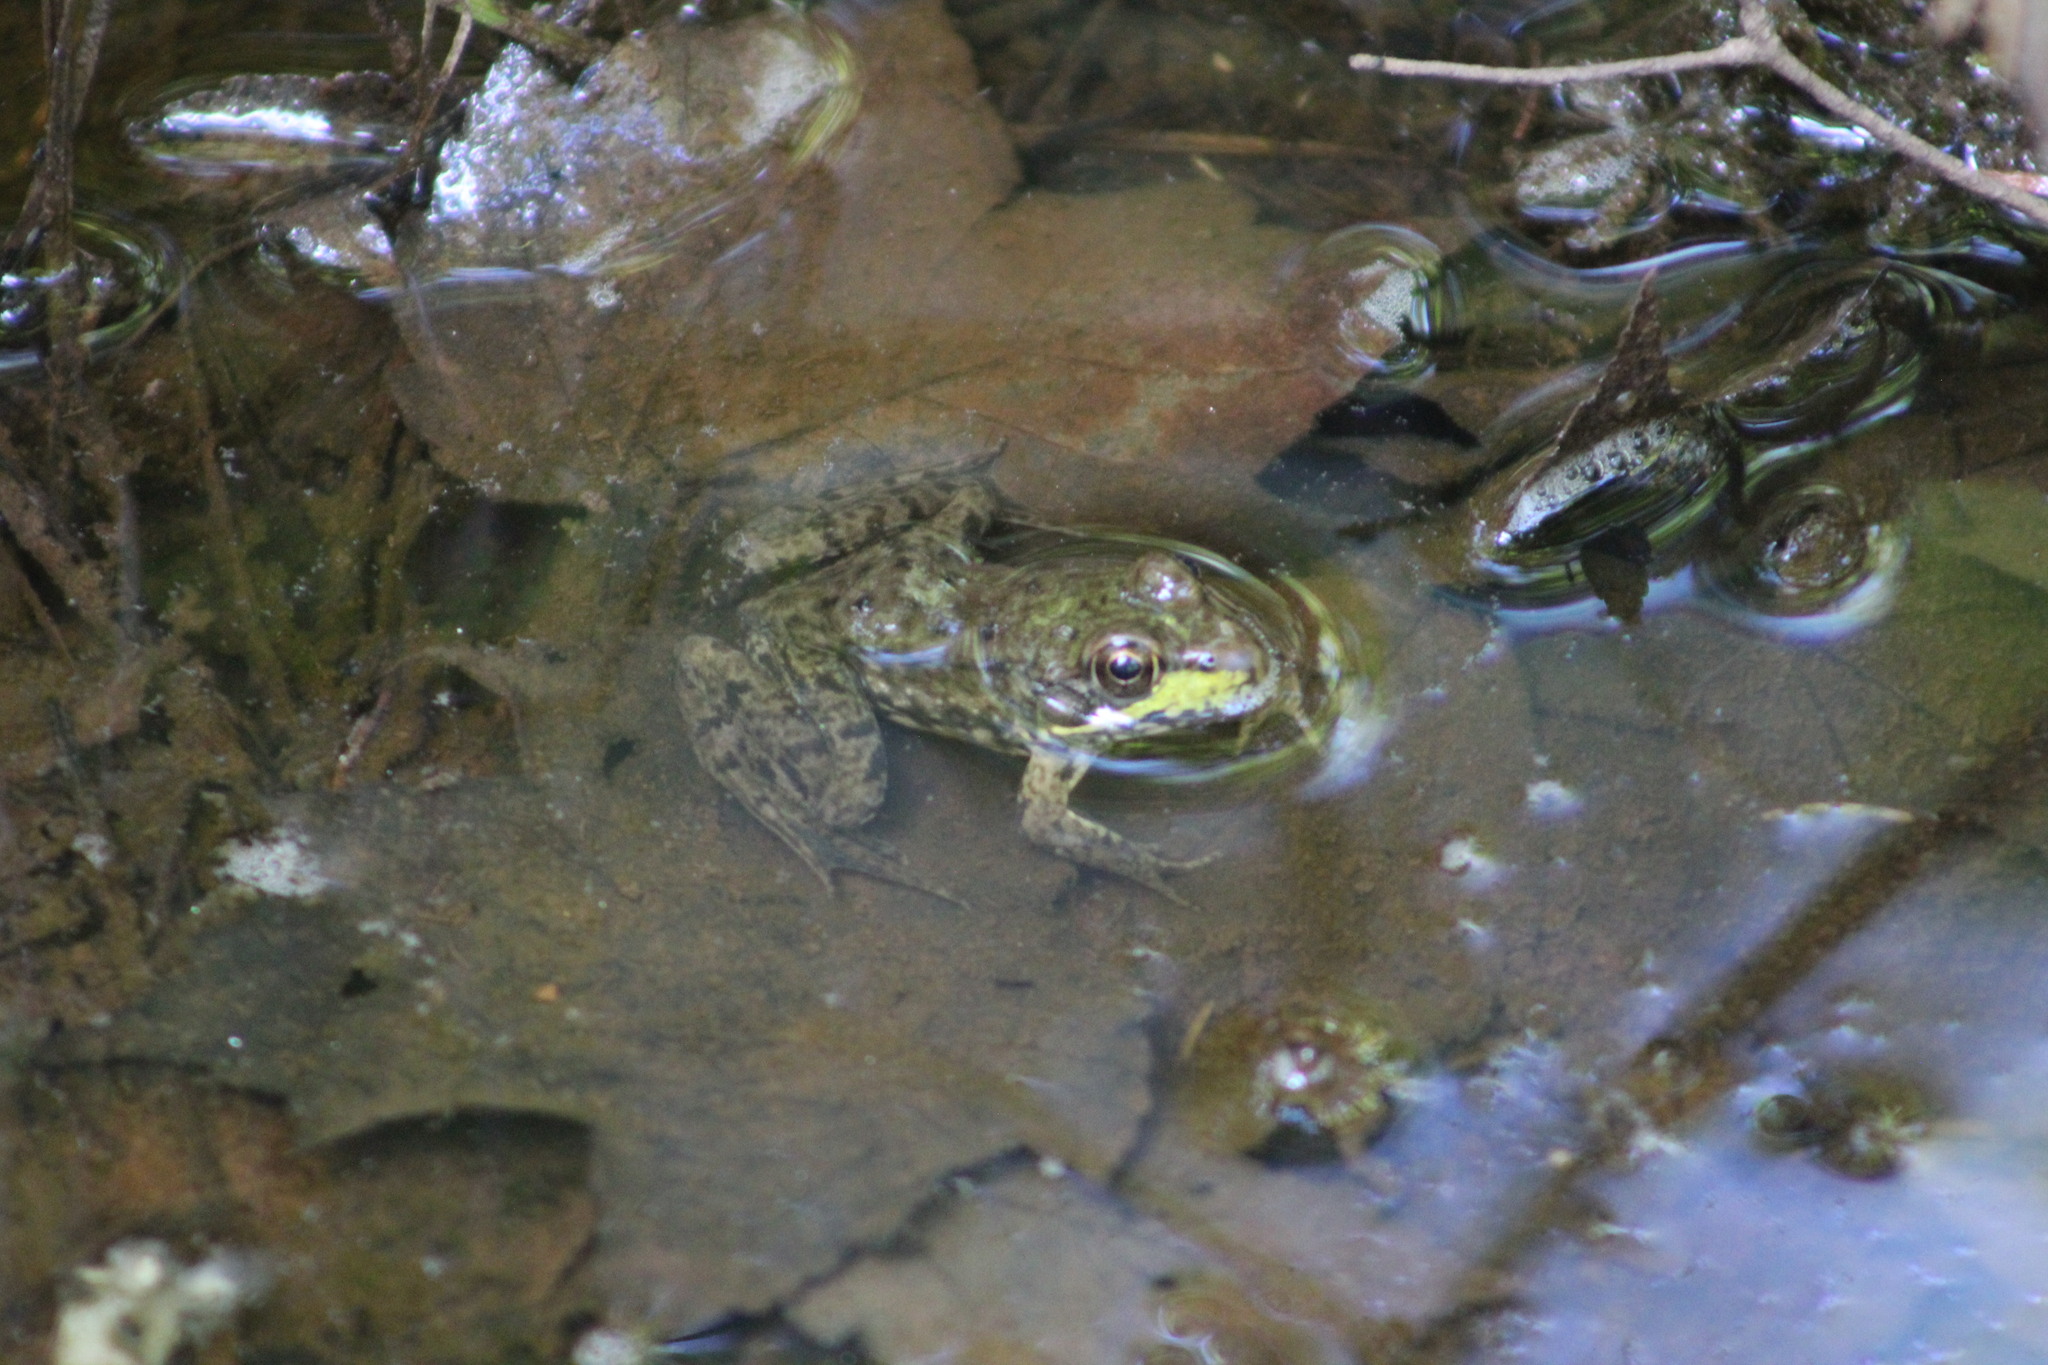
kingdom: Animalia
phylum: Chordata
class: Amphibia
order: Anura
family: Ranidae
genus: Lithobates
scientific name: Lithobates septentrionalis
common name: Mink frog
